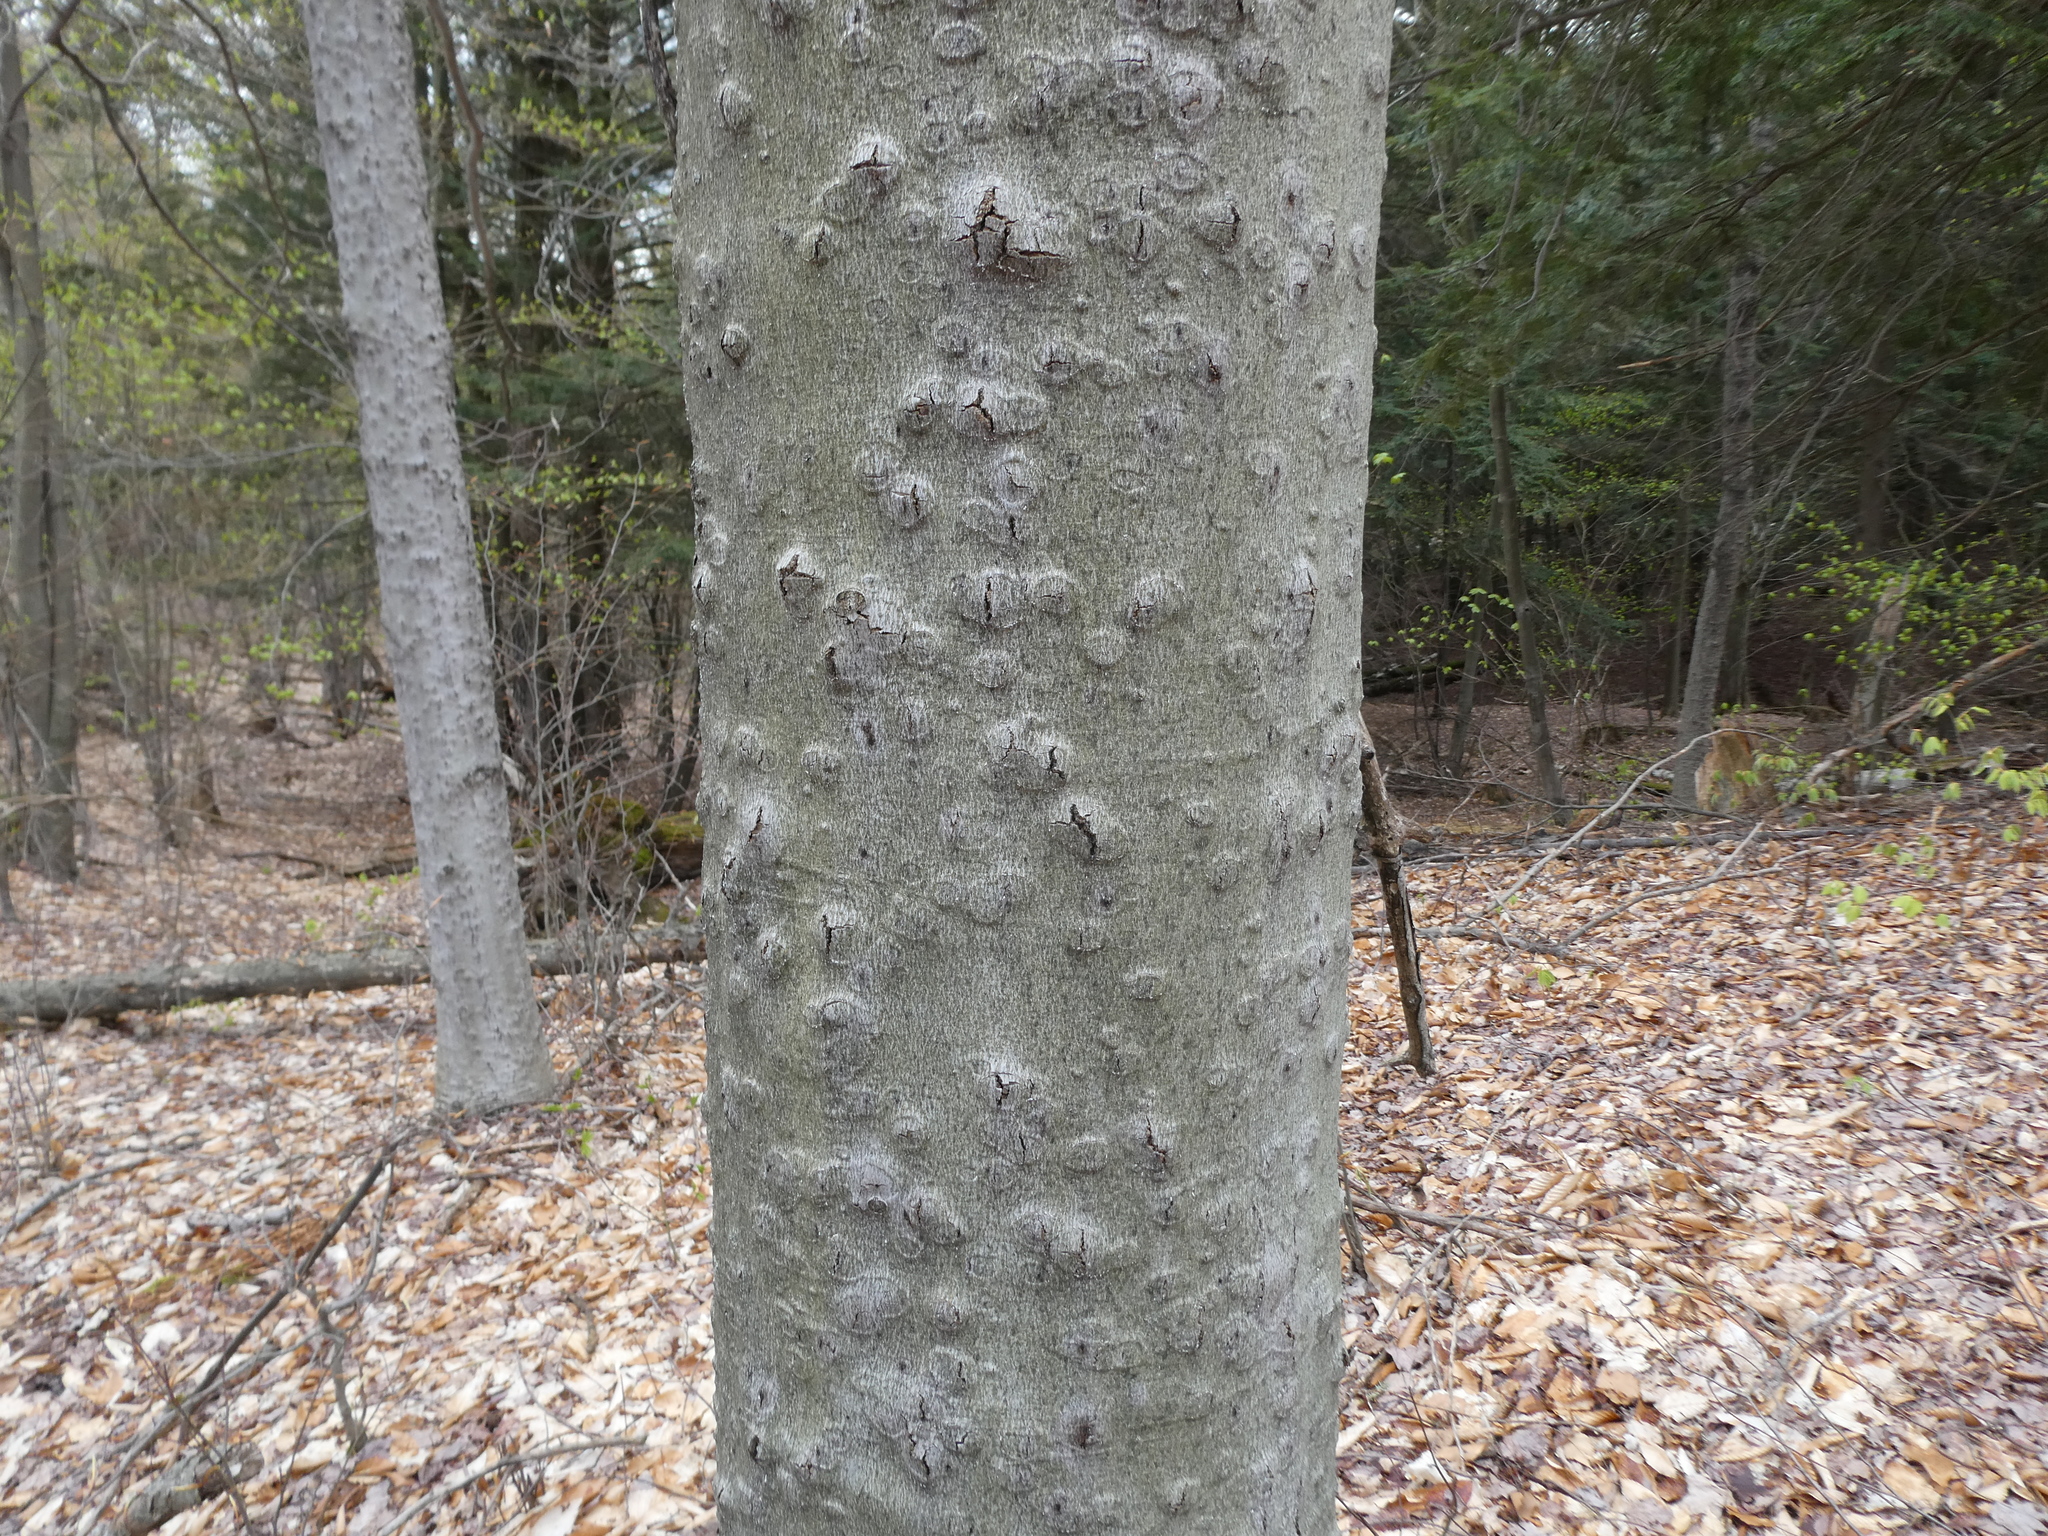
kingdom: Plantae
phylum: Tracheophyta
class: Magnoliopsida
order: Fagales
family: Fagaceae
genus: Fagus
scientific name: Fagus grandifolia
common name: American beech
